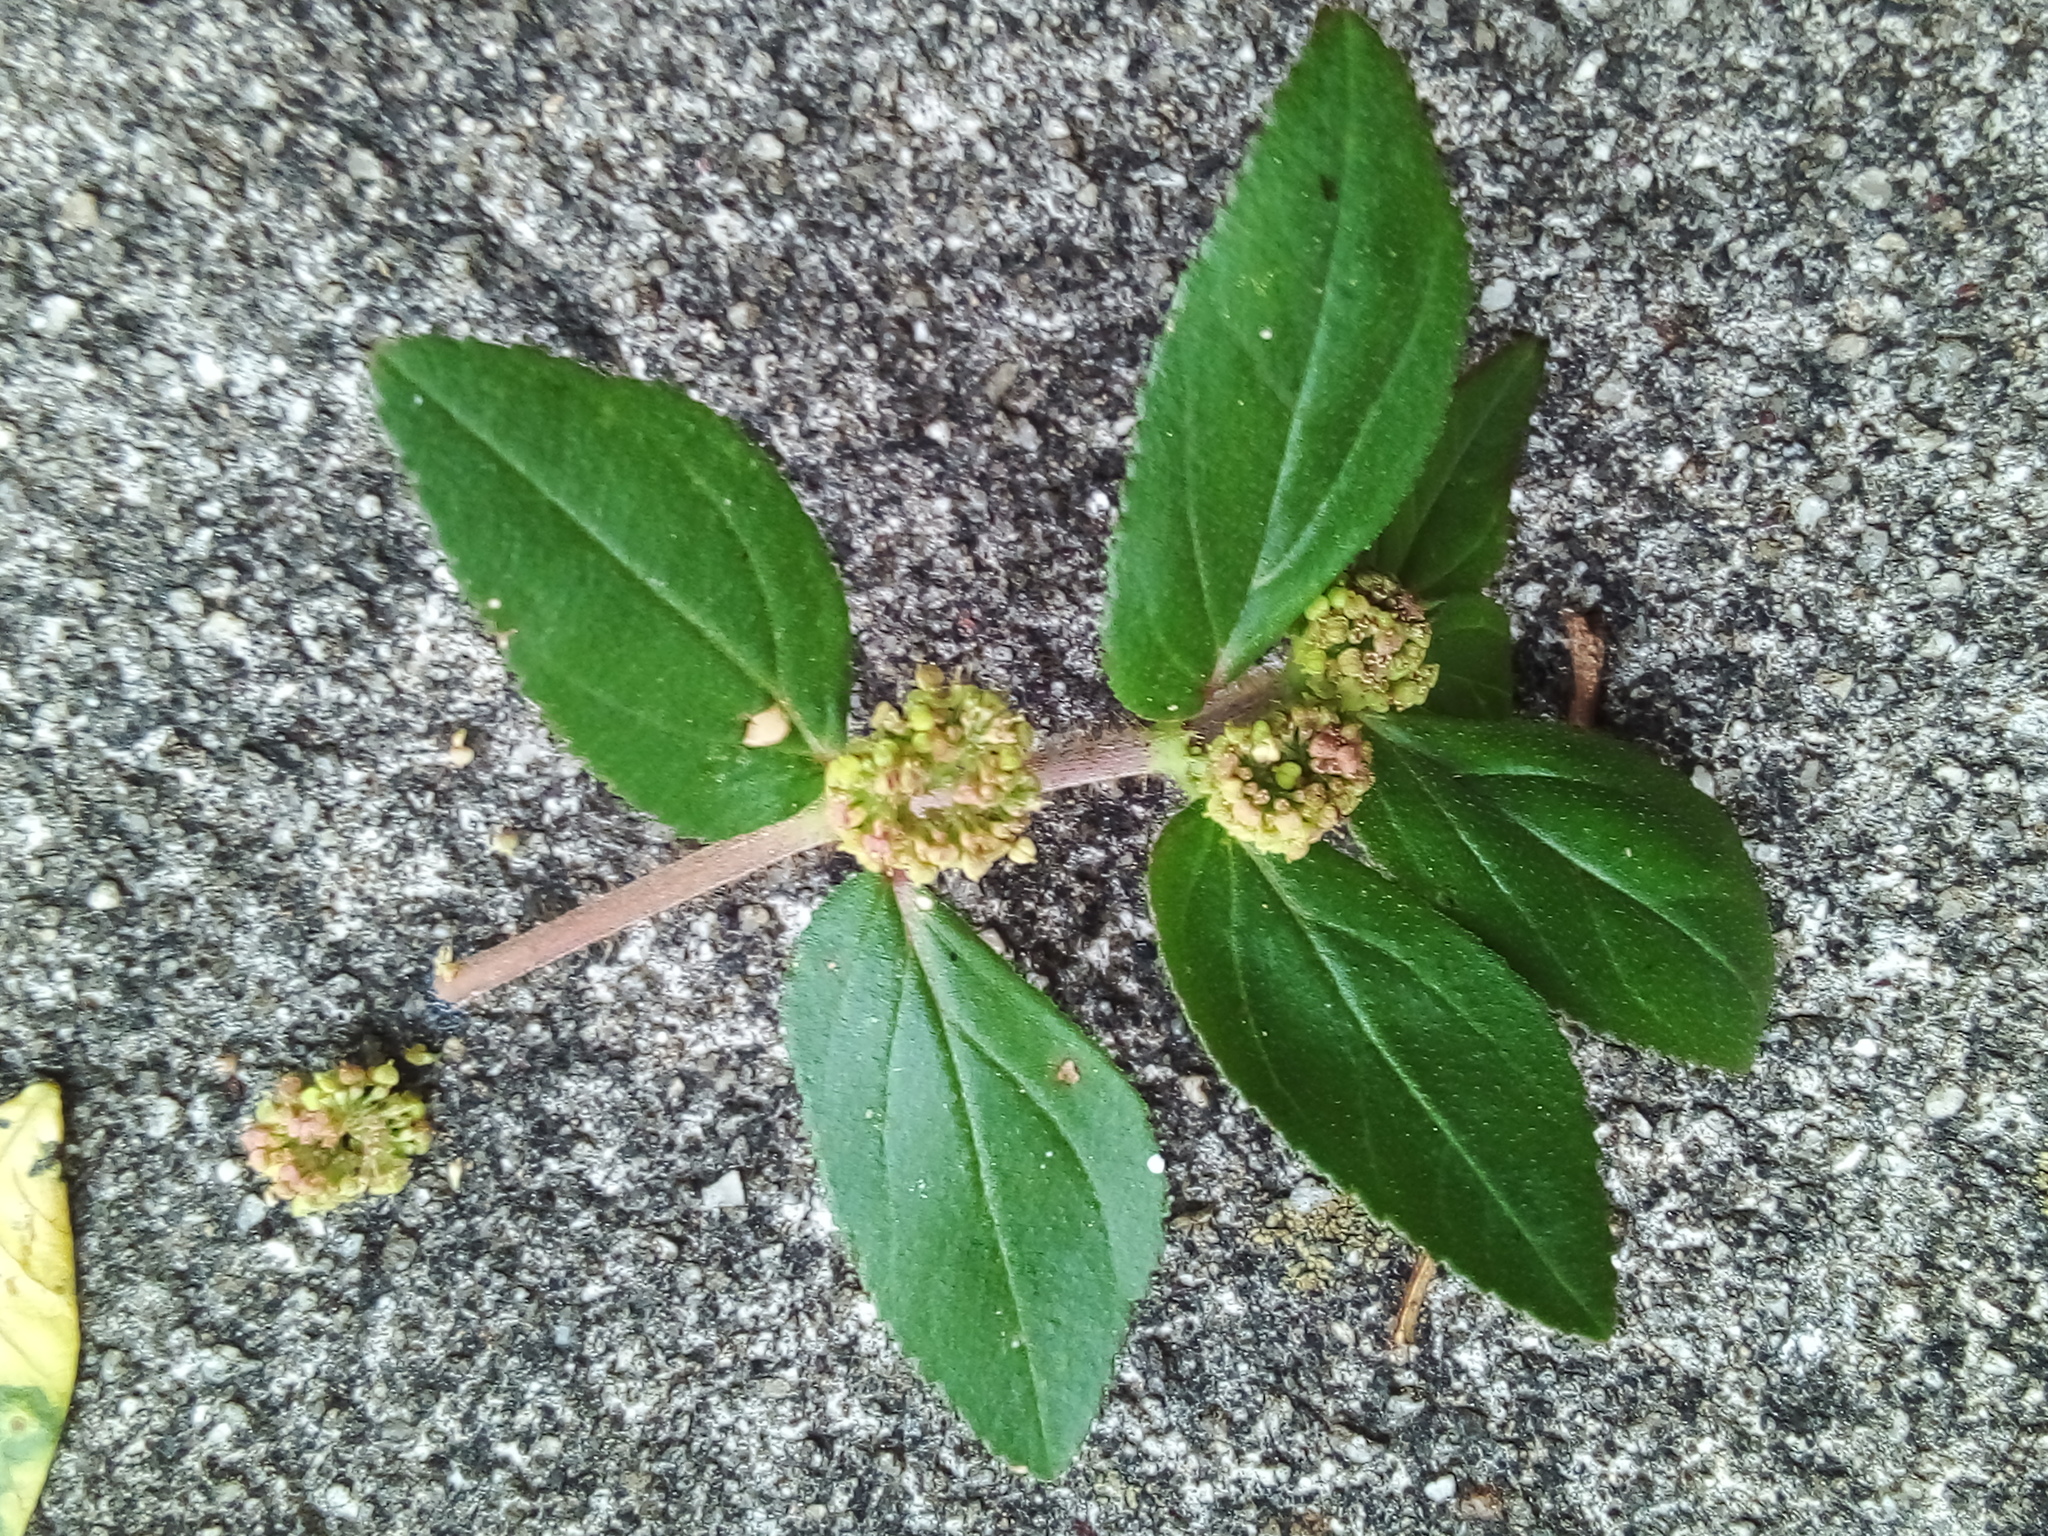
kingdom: Plantae
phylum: Tracheophyta
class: Magnoliopsida
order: Malpighiales
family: Euphorbiaceae
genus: Euphorbia
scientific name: Euphorbia hirta
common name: Pillpod sandmat
